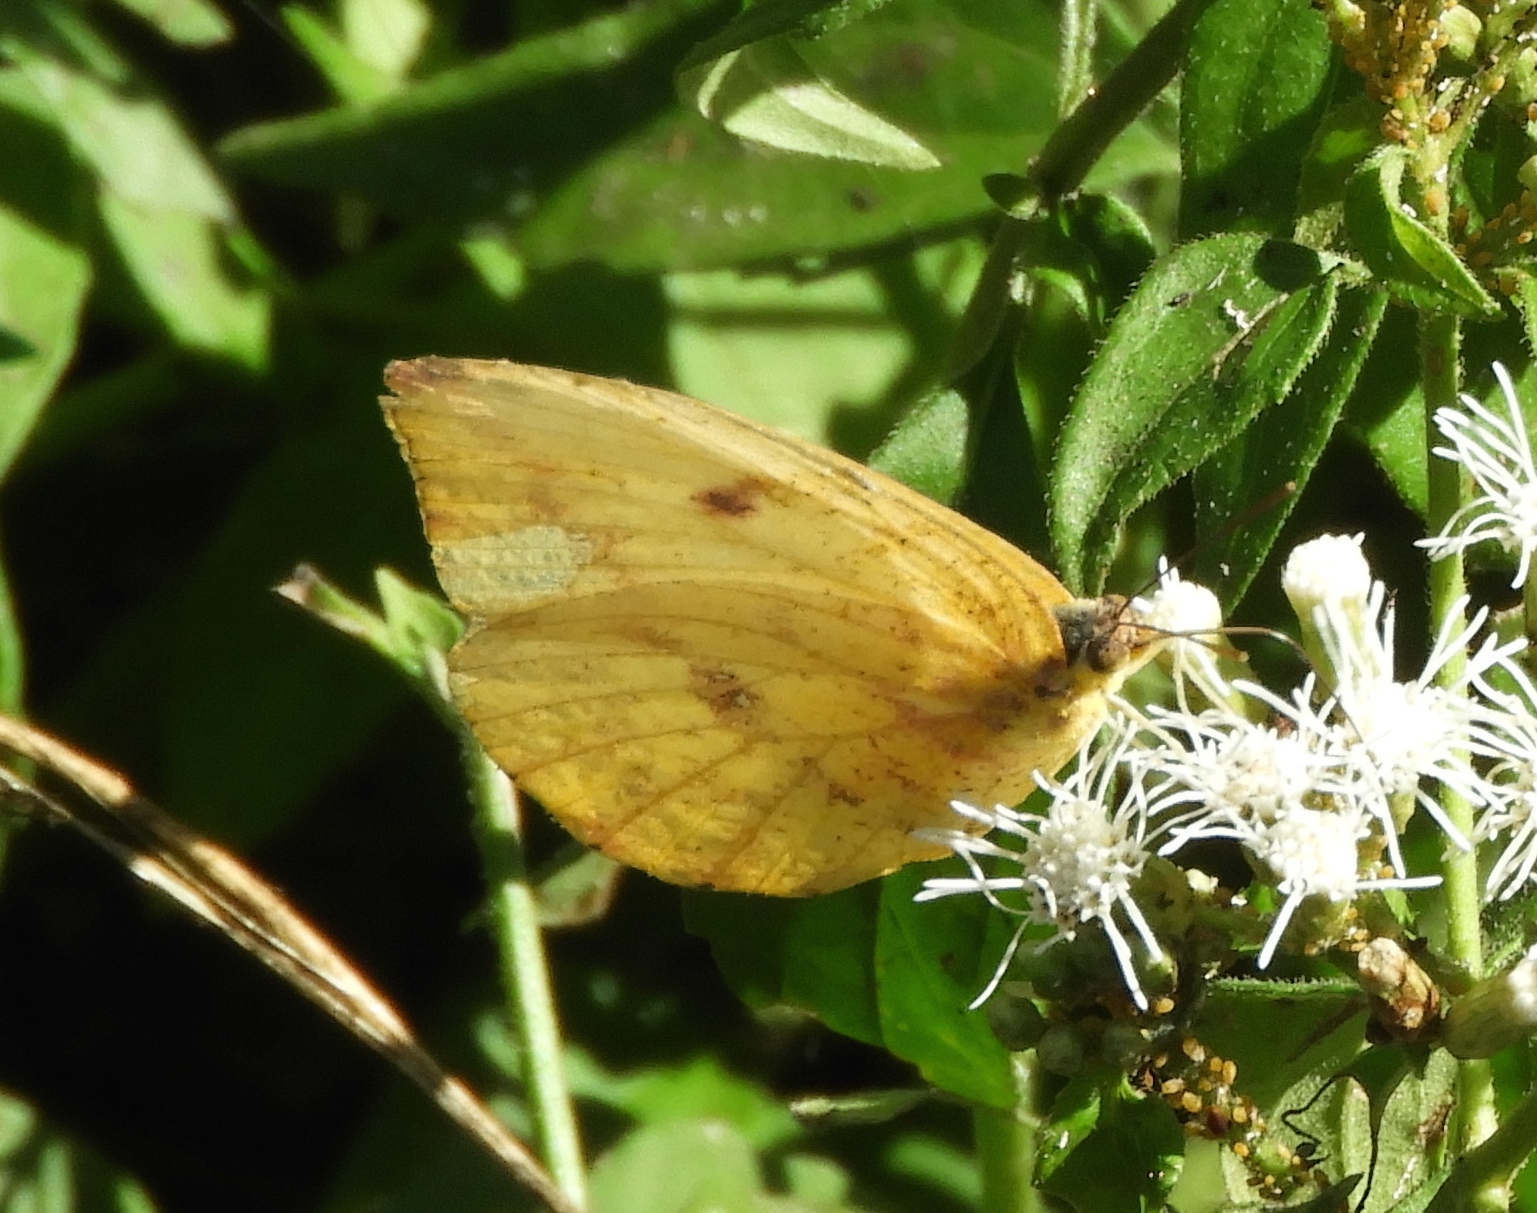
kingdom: Animalia
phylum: Arthropoda
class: Insecta
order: Lepidoptera
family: Pieridae
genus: Phoebis
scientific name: Phoebis agarithe
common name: Large orange sulphur
